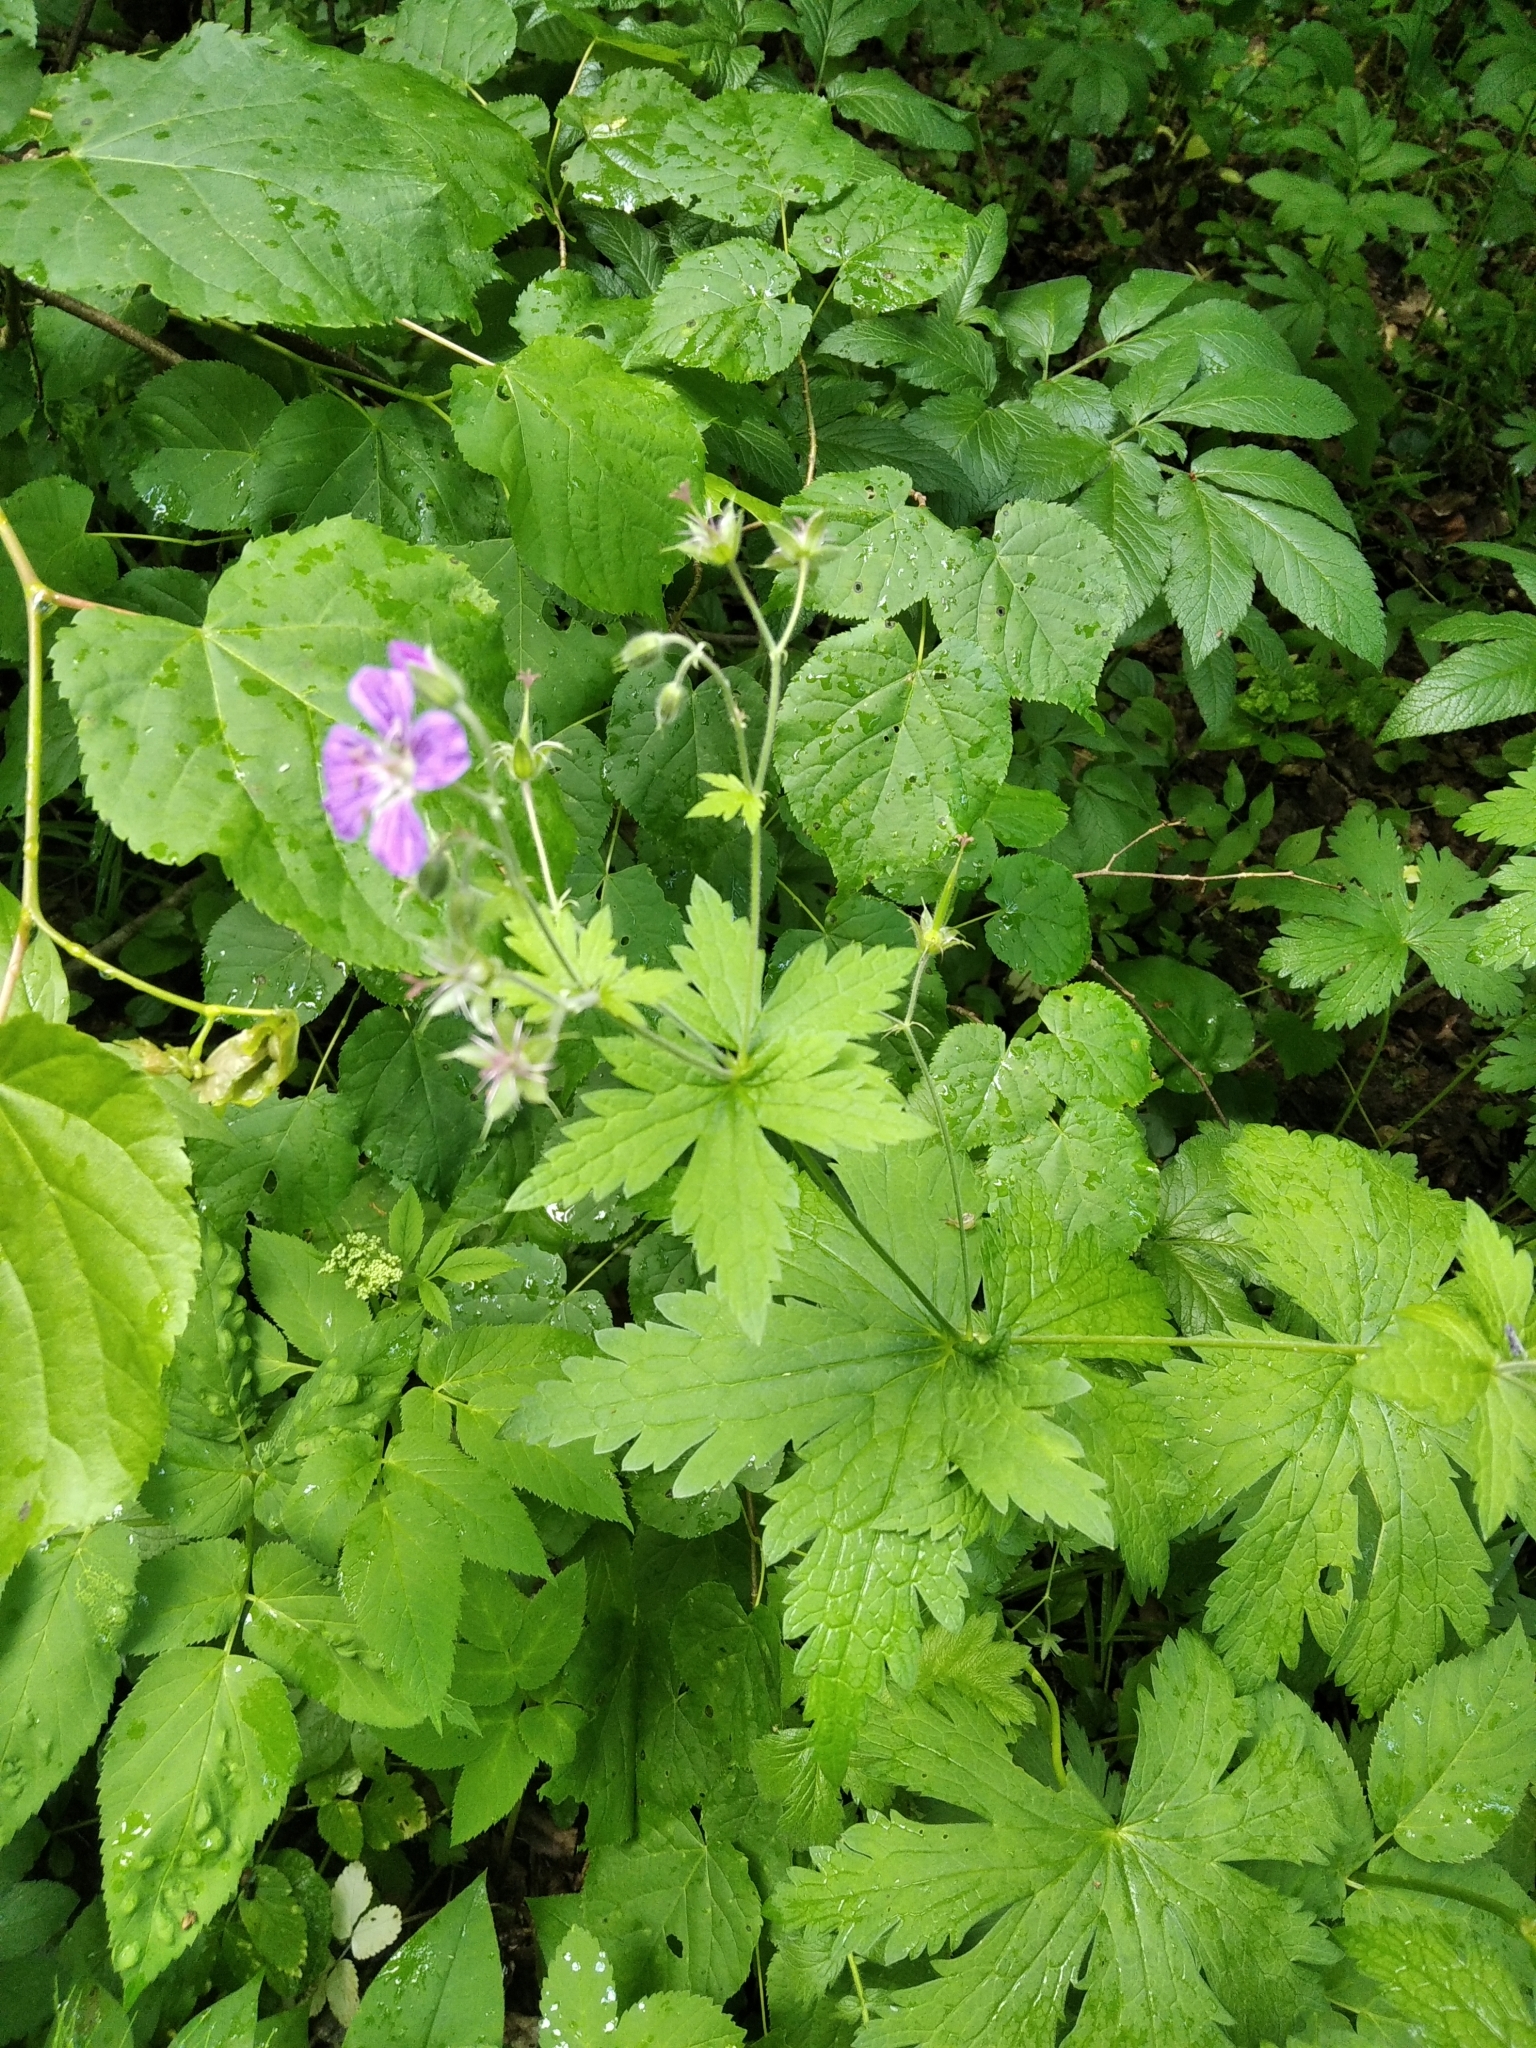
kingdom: Plantae
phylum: Tracheophyta
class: Magnoliopsida
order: Geraniales
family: Geraniaceae
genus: Geranium
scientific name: Geranium sylvaticum
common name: Wood crane's-bill
